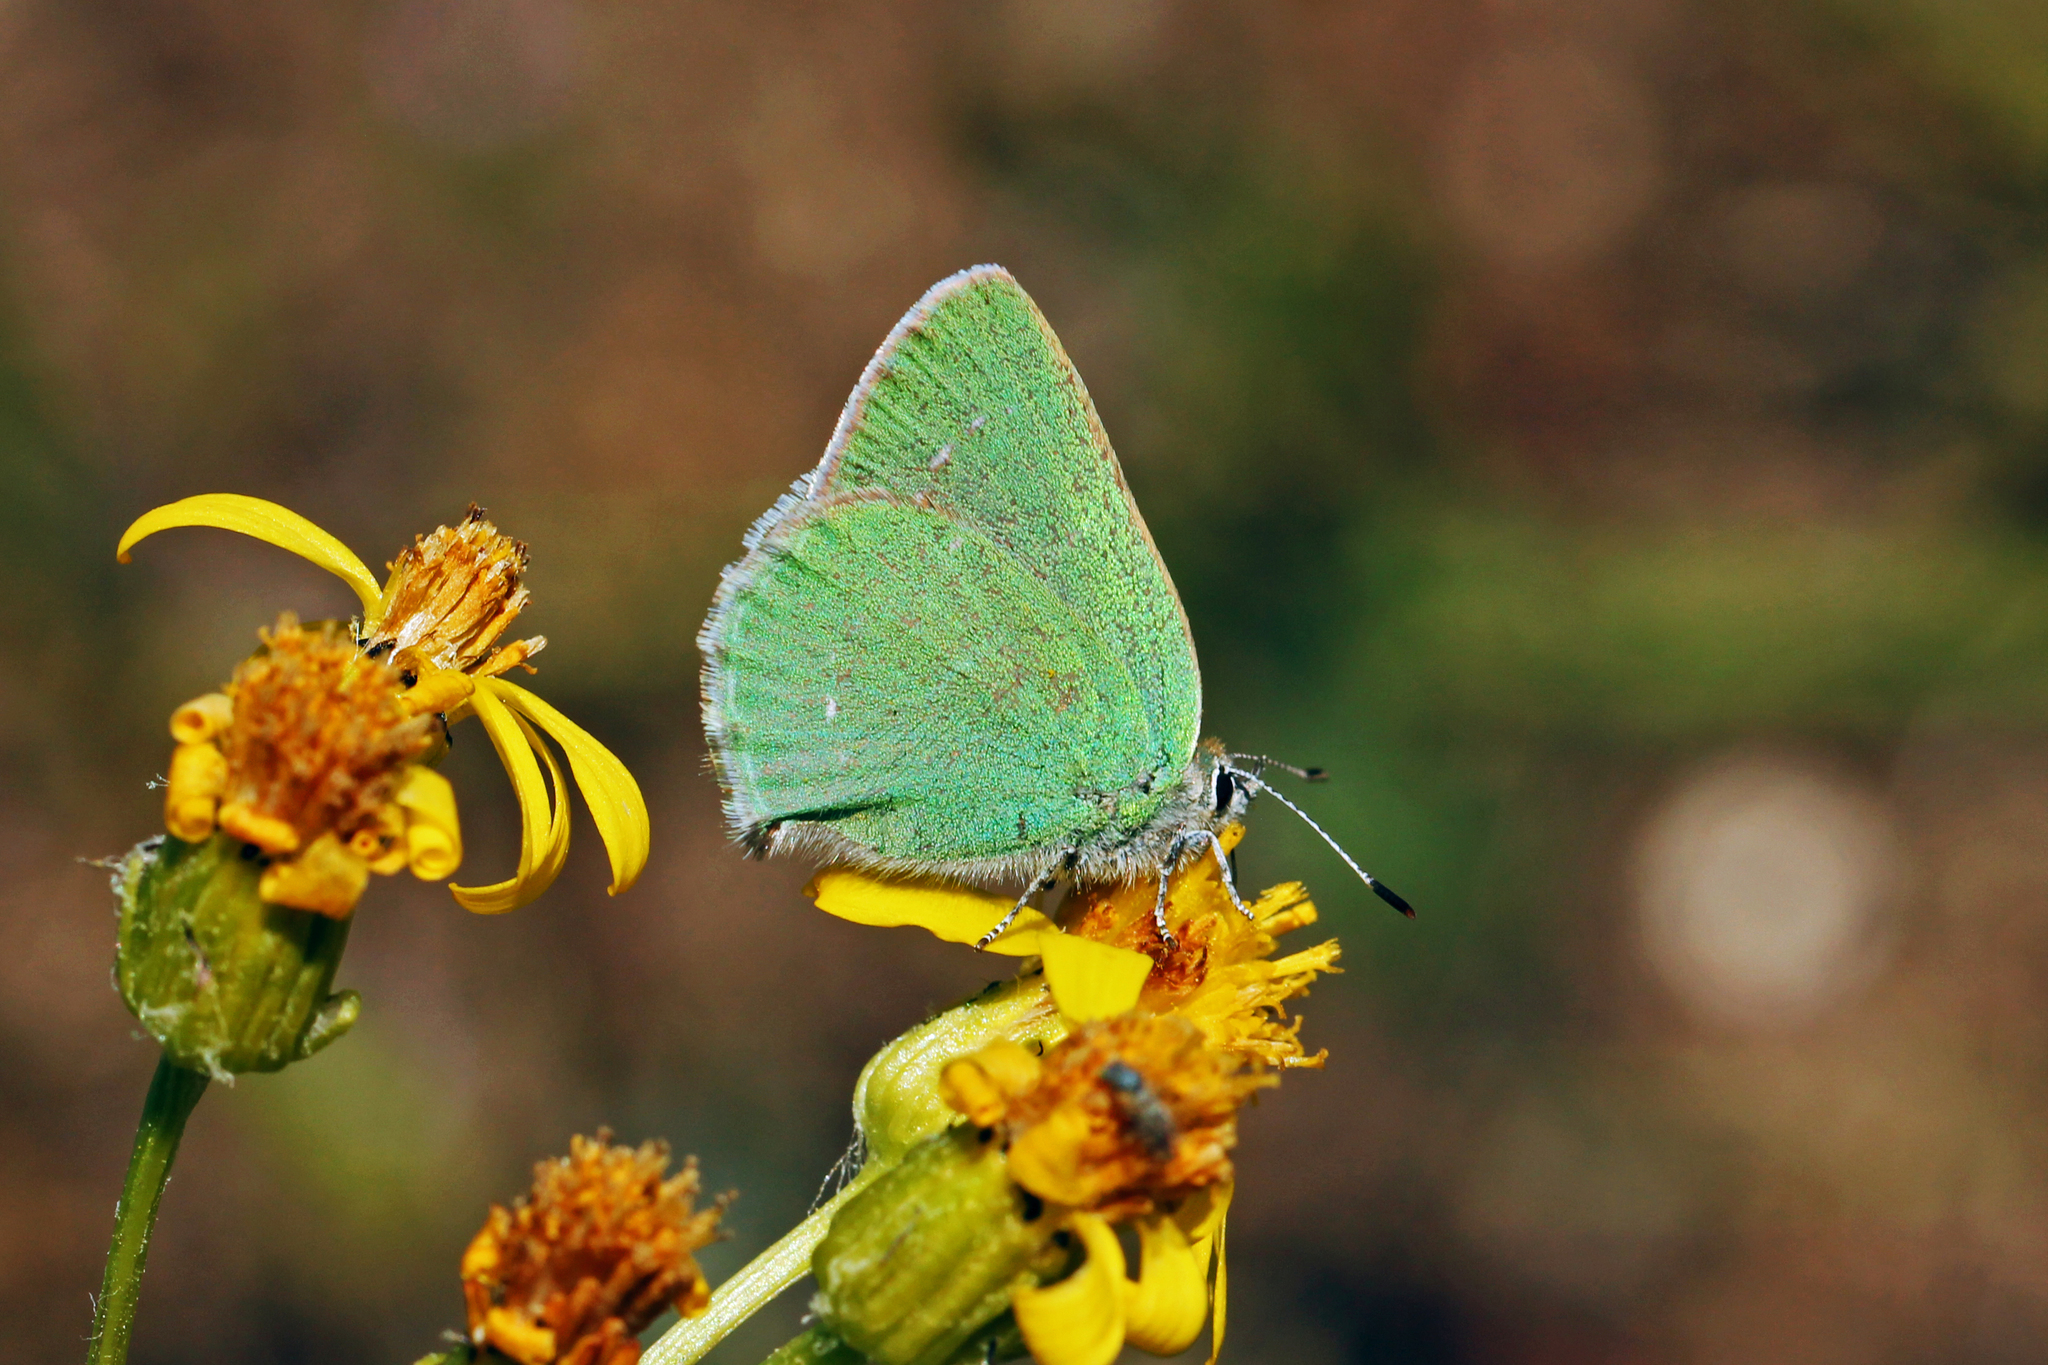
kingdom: Animalia
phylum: Arthropoda
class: Insecta
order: Lepidoptera
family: Lycaenidae
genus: Callophrys
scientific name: Callophrys affinis
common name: Western green hairstreak
